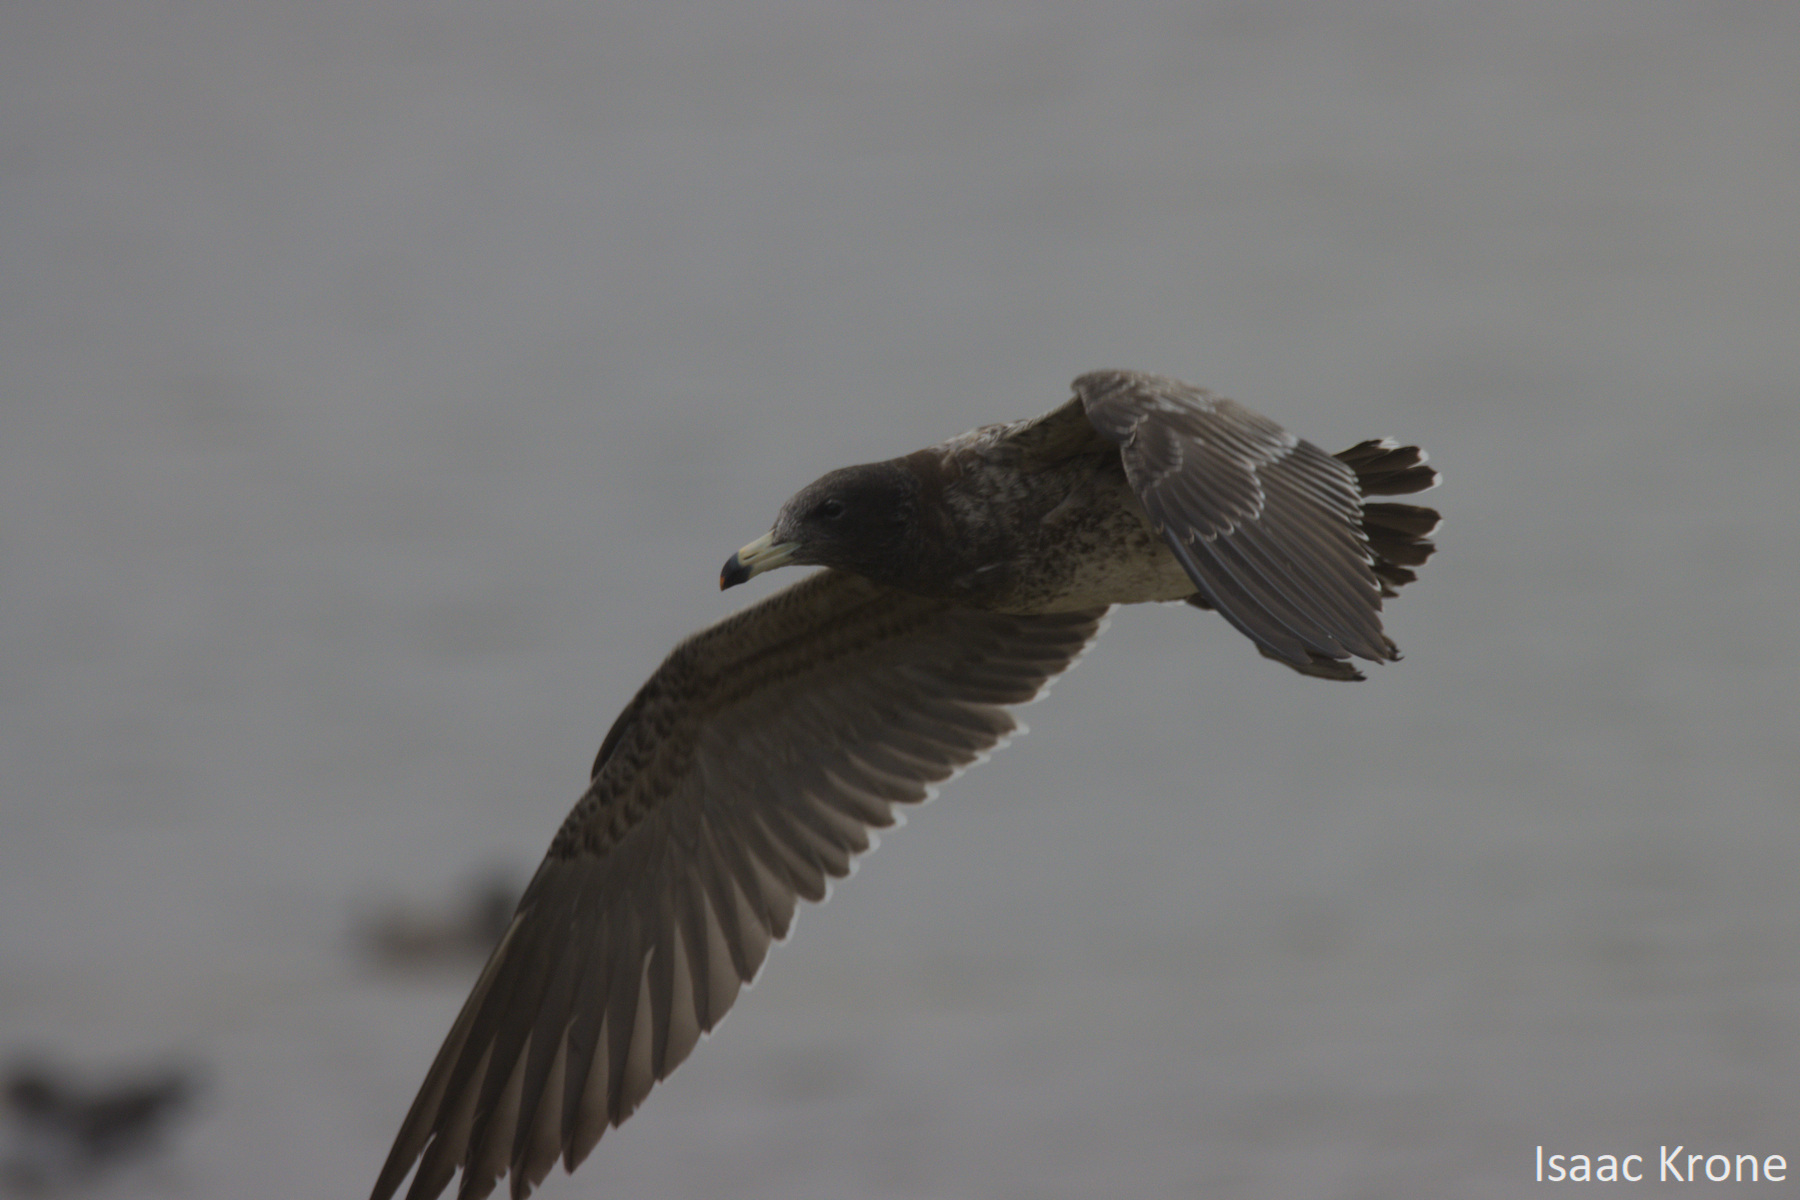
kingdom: Animalia
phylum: Chordata
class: Aves
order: Charadriiformes
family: Laridae
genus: Larus
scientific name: Larus belcheri
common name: Belcher's gull
